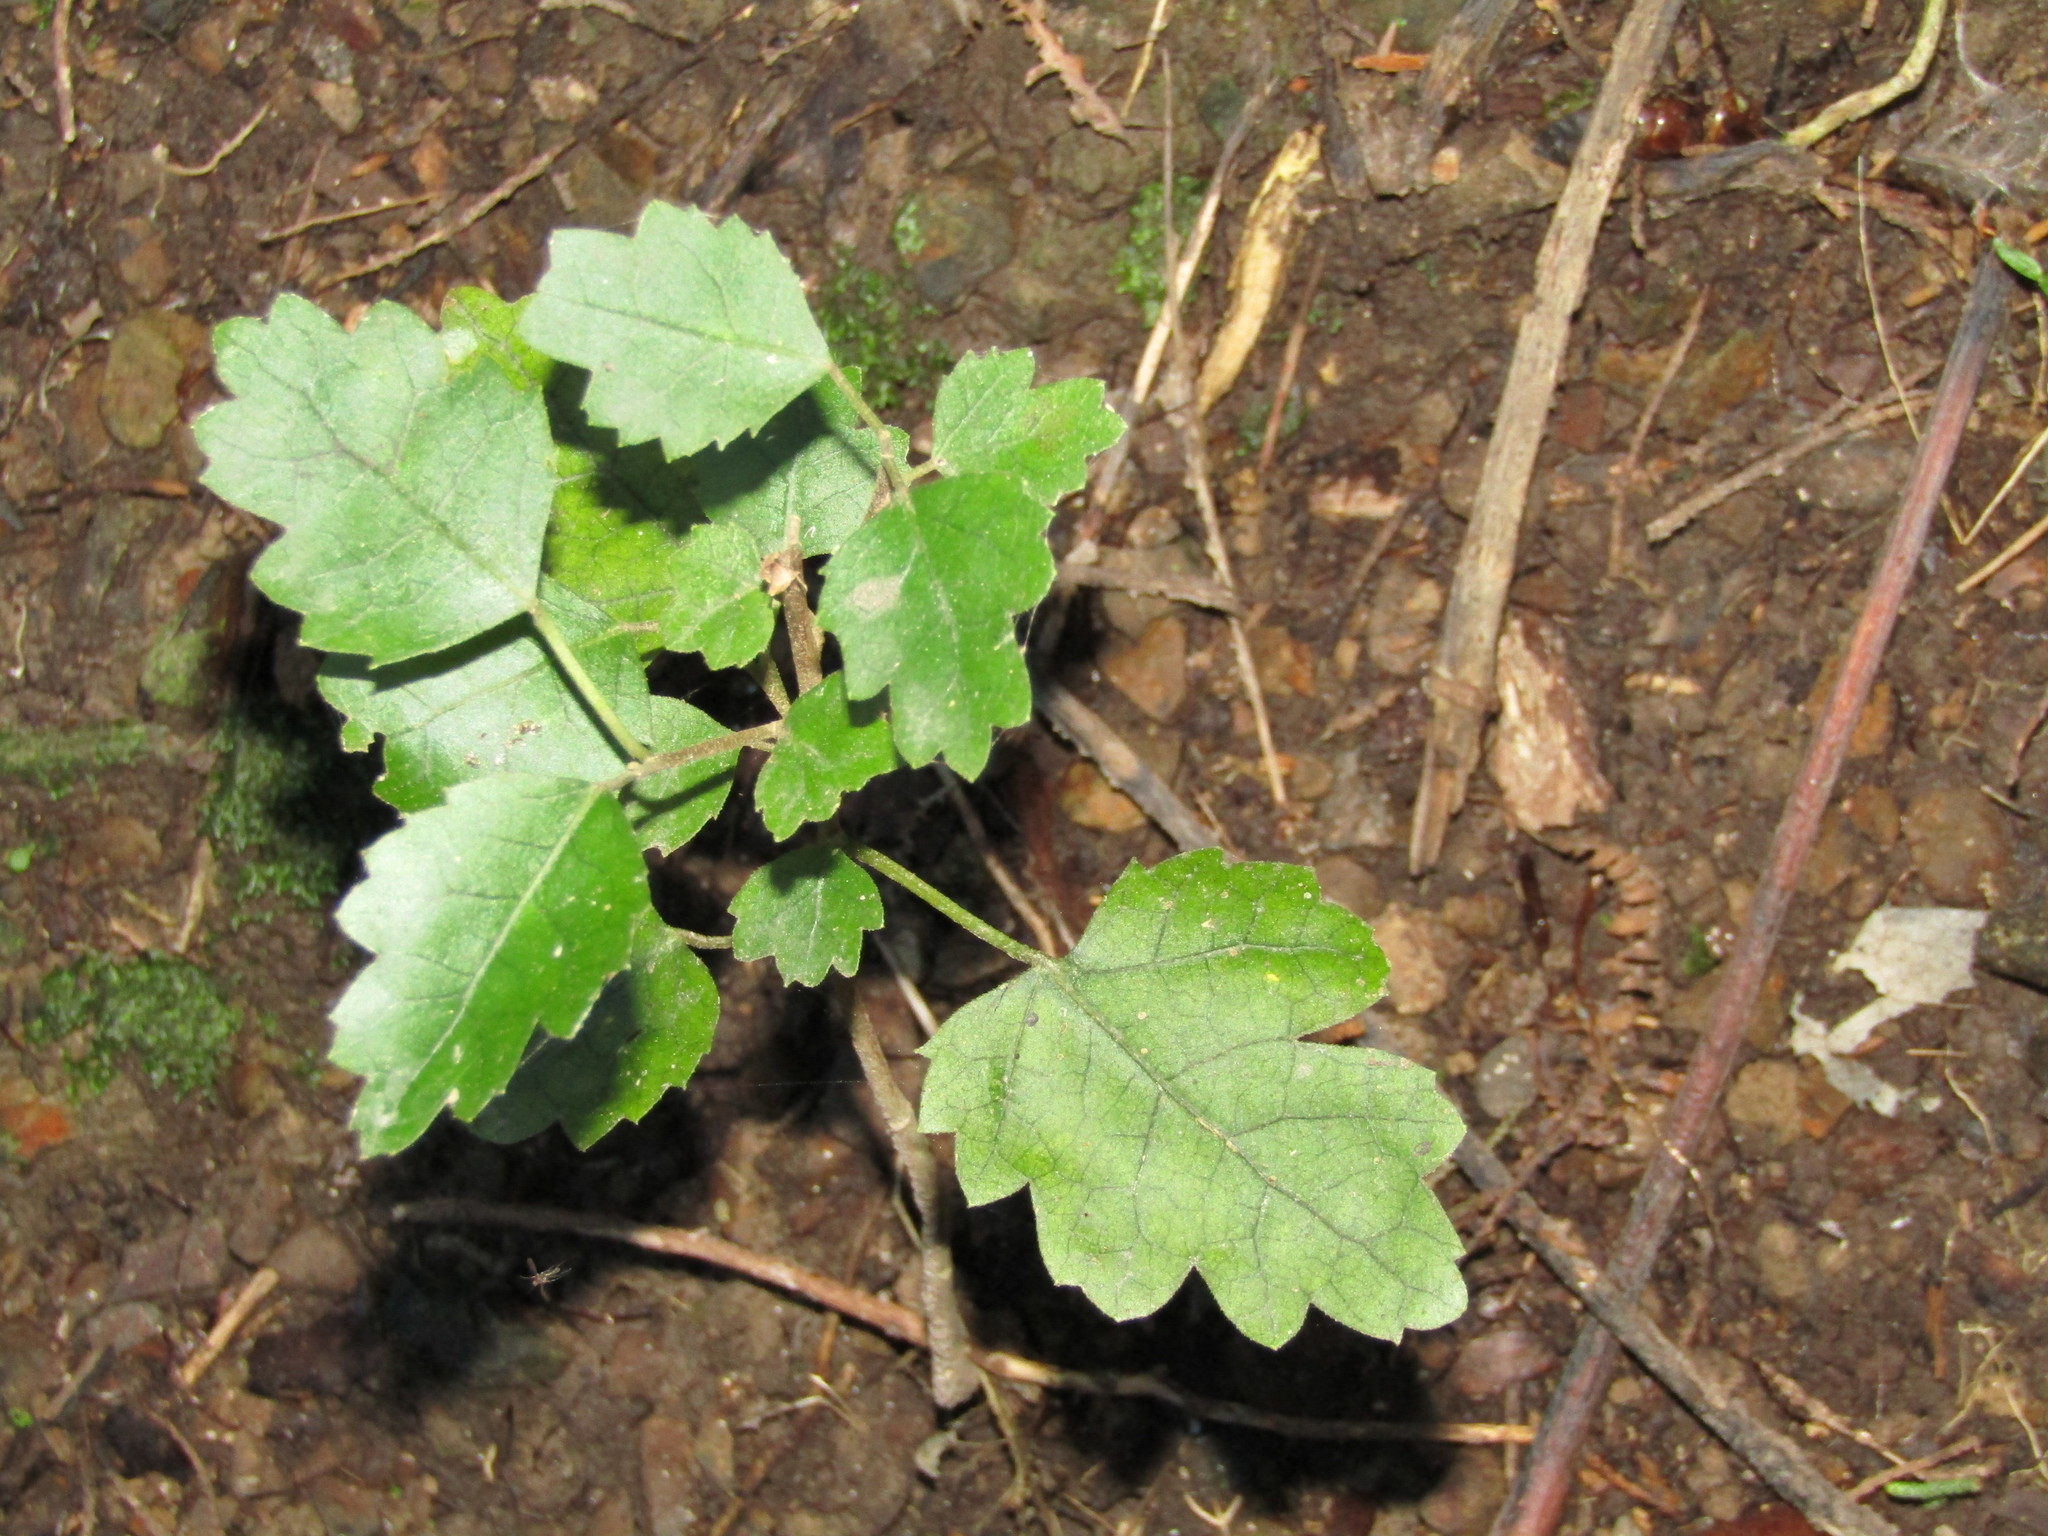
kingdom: Plantae
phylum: Tracheophyta
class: Magnoliopsida
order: Malvales
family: Malvaceae
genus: Hoheria
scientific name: Hoheria populnea
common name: Lacebark
